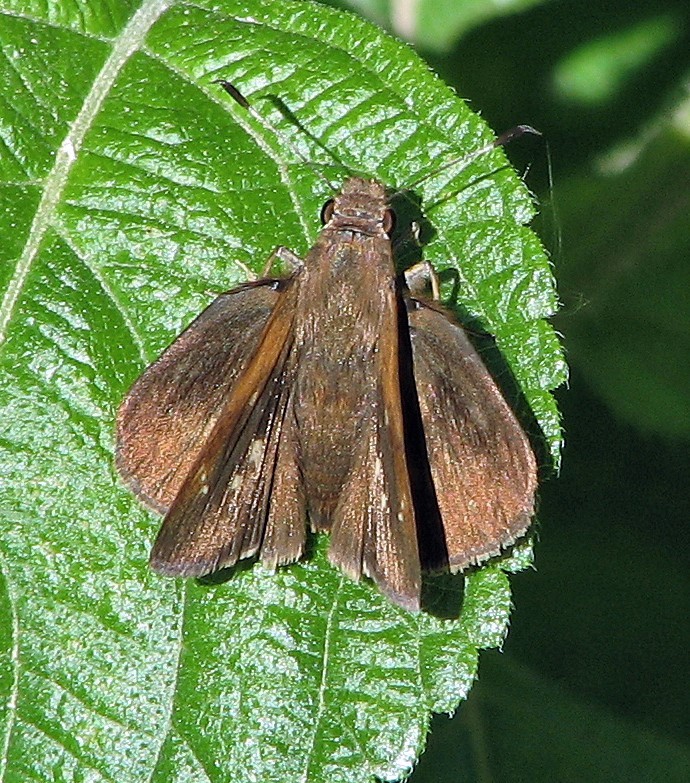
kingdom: Animalia
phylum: Arthropoda
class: Insecta
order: Lepidoptera
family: Hesperiidae
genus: Quinta
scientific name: Quinta cannae
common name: Canna skipper
